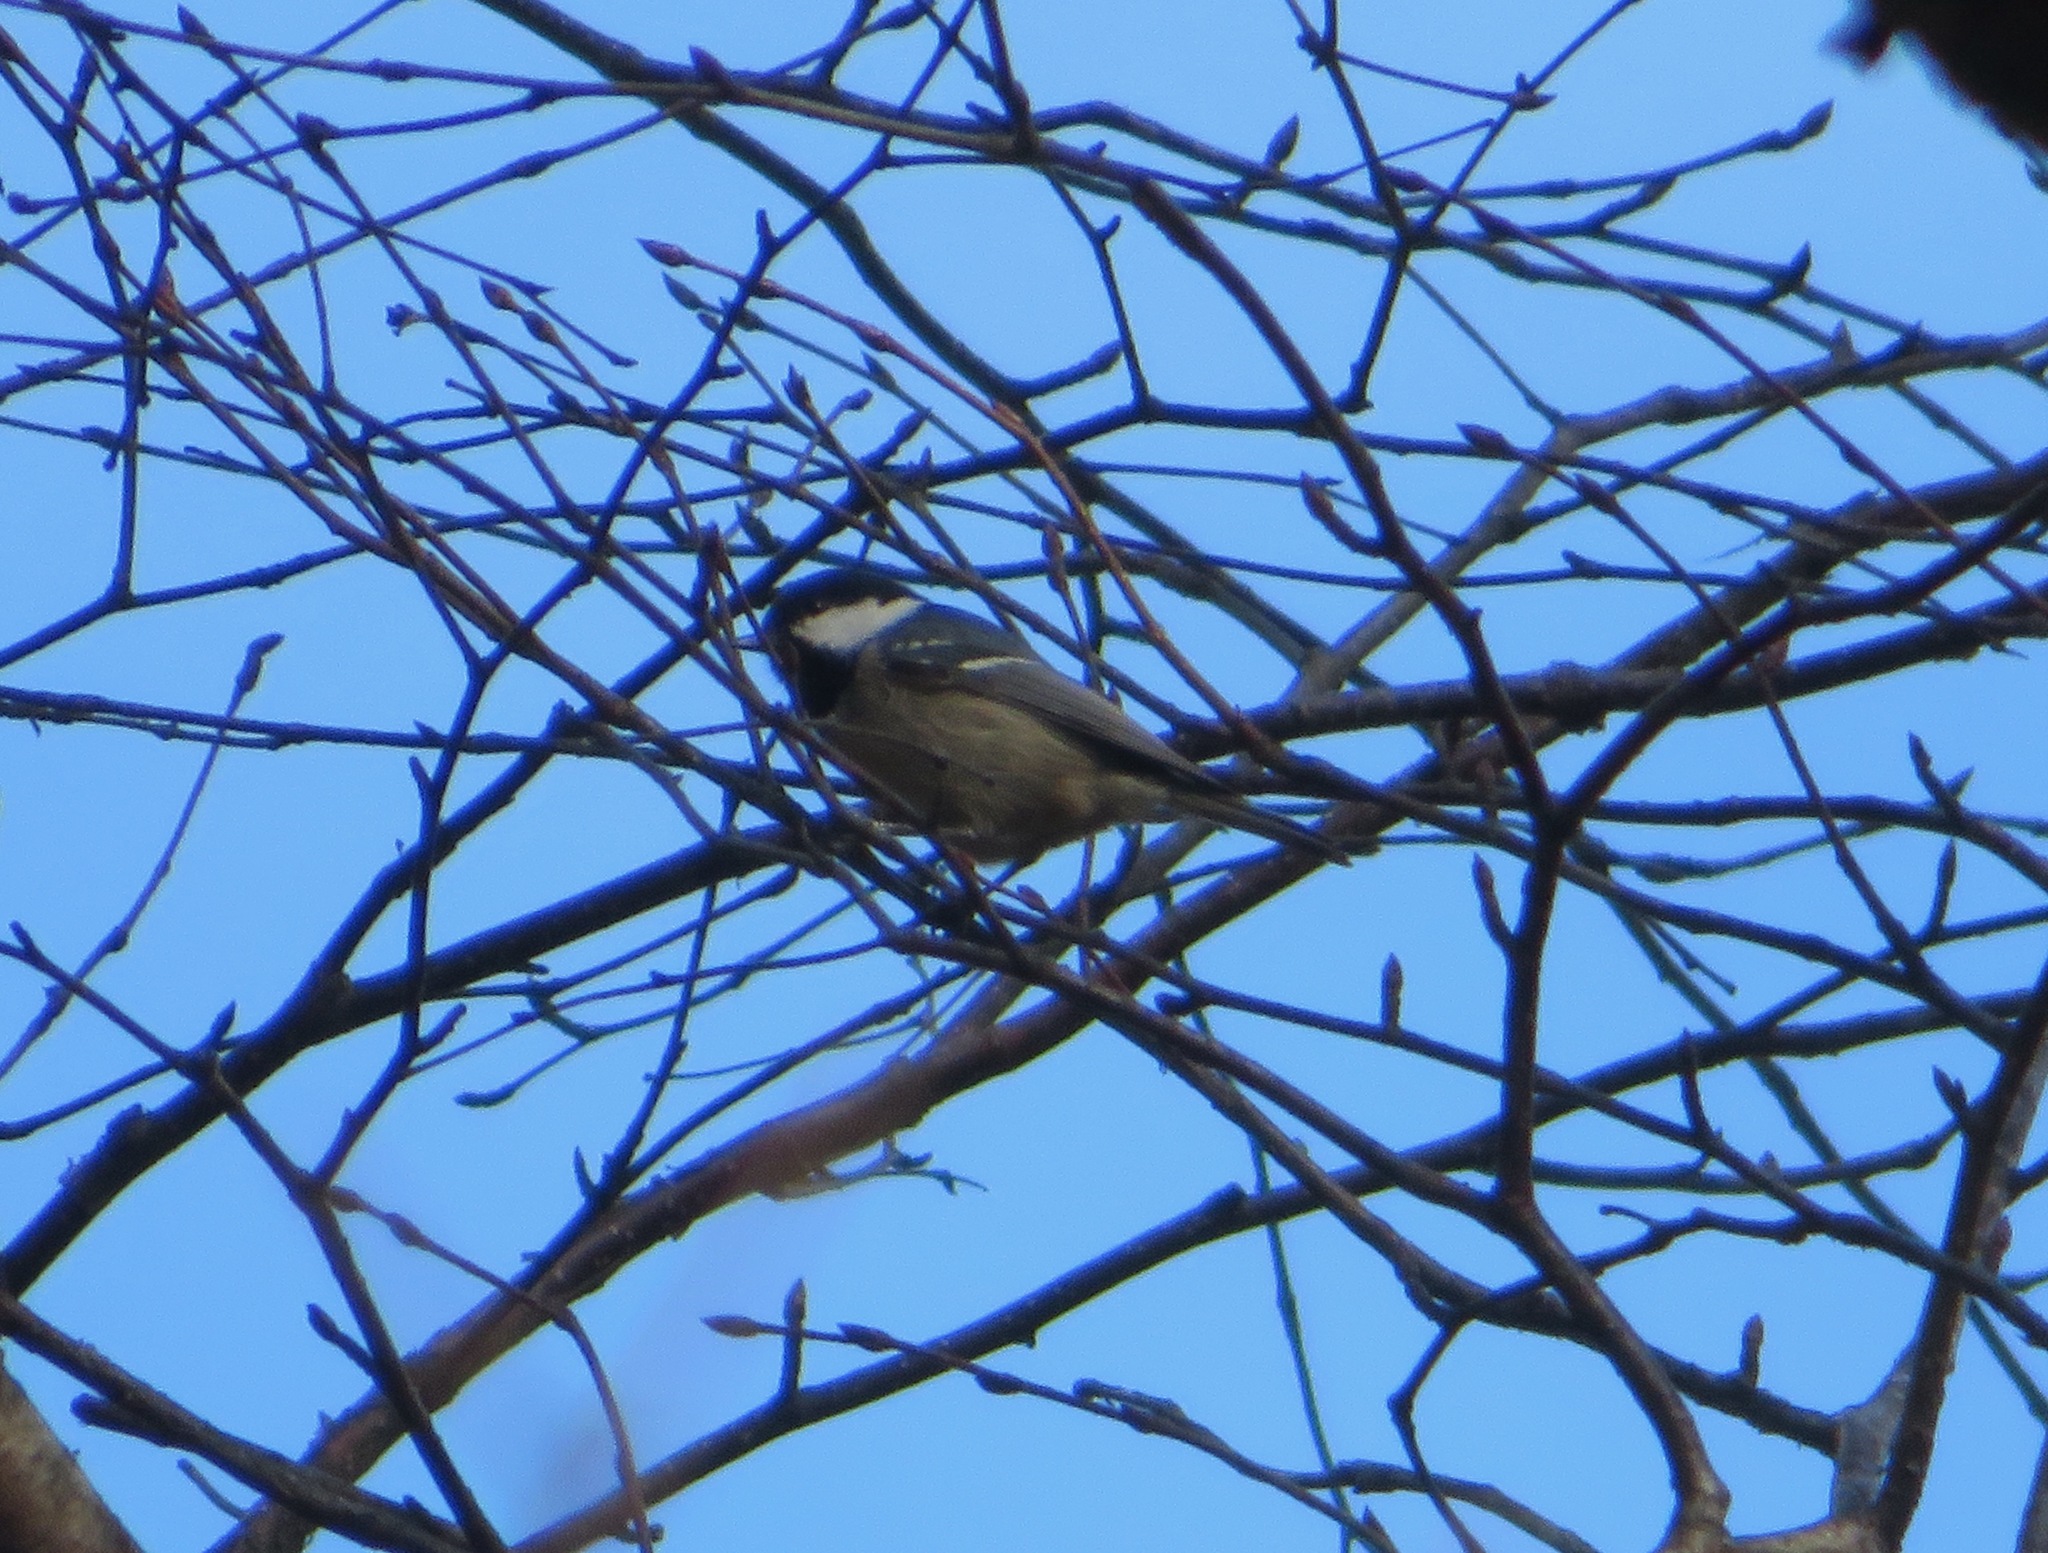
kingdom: Animalia
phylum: Chordata
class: Aves
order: Passeriformes
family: Paridae
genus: Periparus
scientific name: Periparus ater
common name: Coal tit
